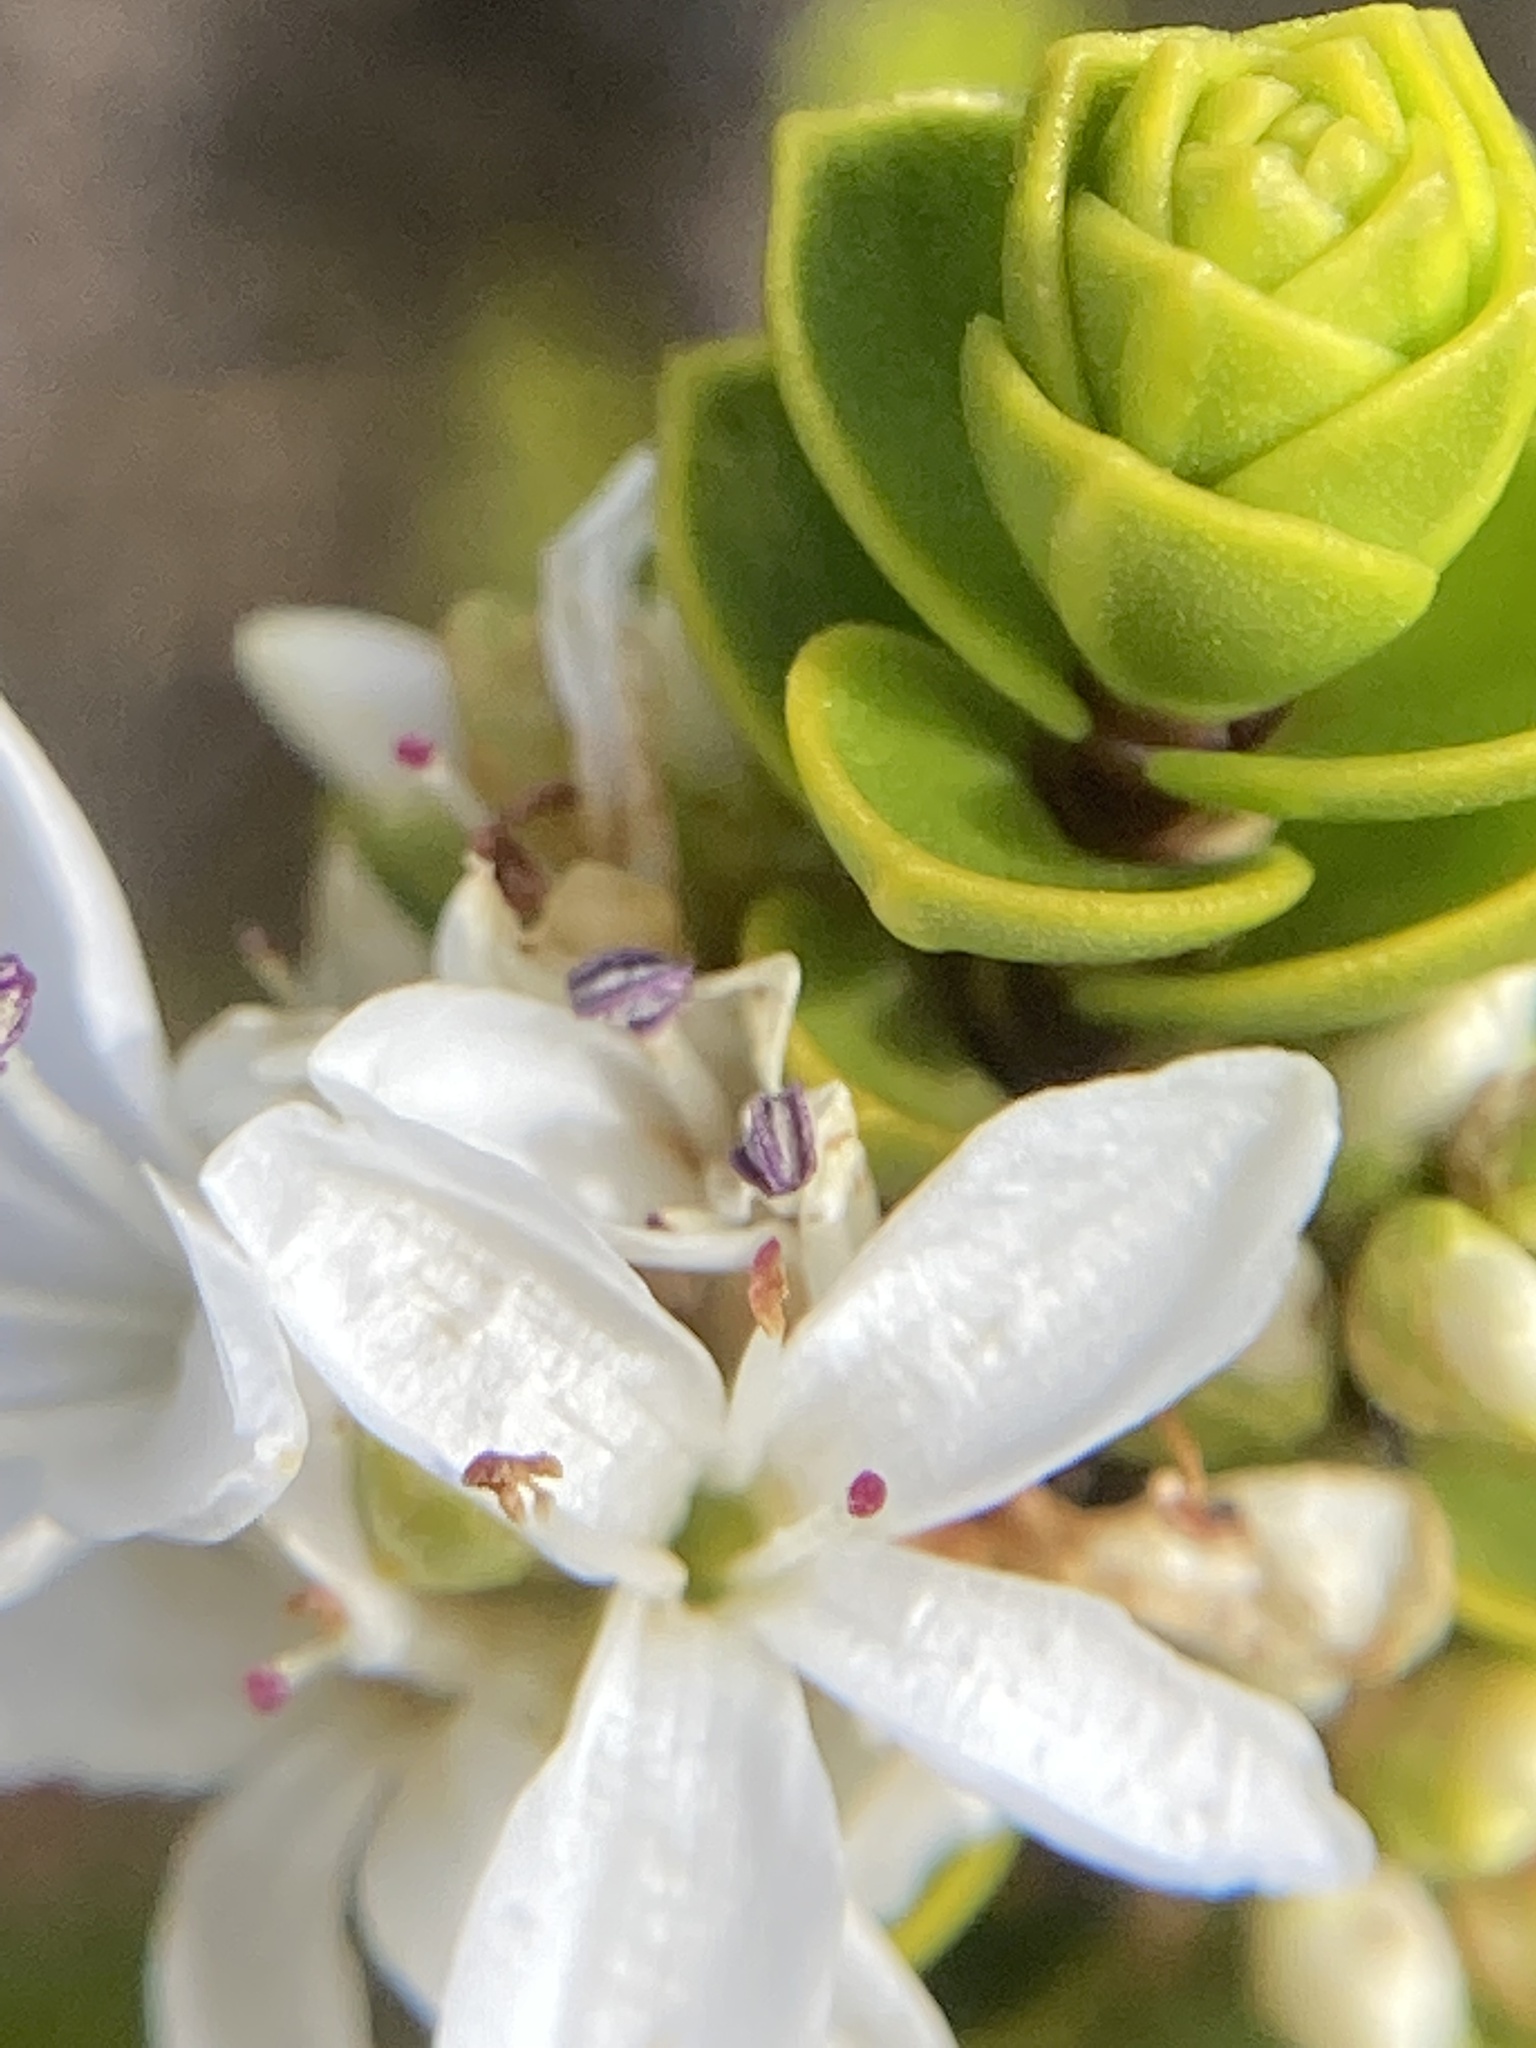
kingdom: Plantae
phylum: Tracheophyta
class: Magnoliopsida
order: Lamiales
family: Plantaginaceae
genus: Veronica
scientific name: Veronica pauciramosa
